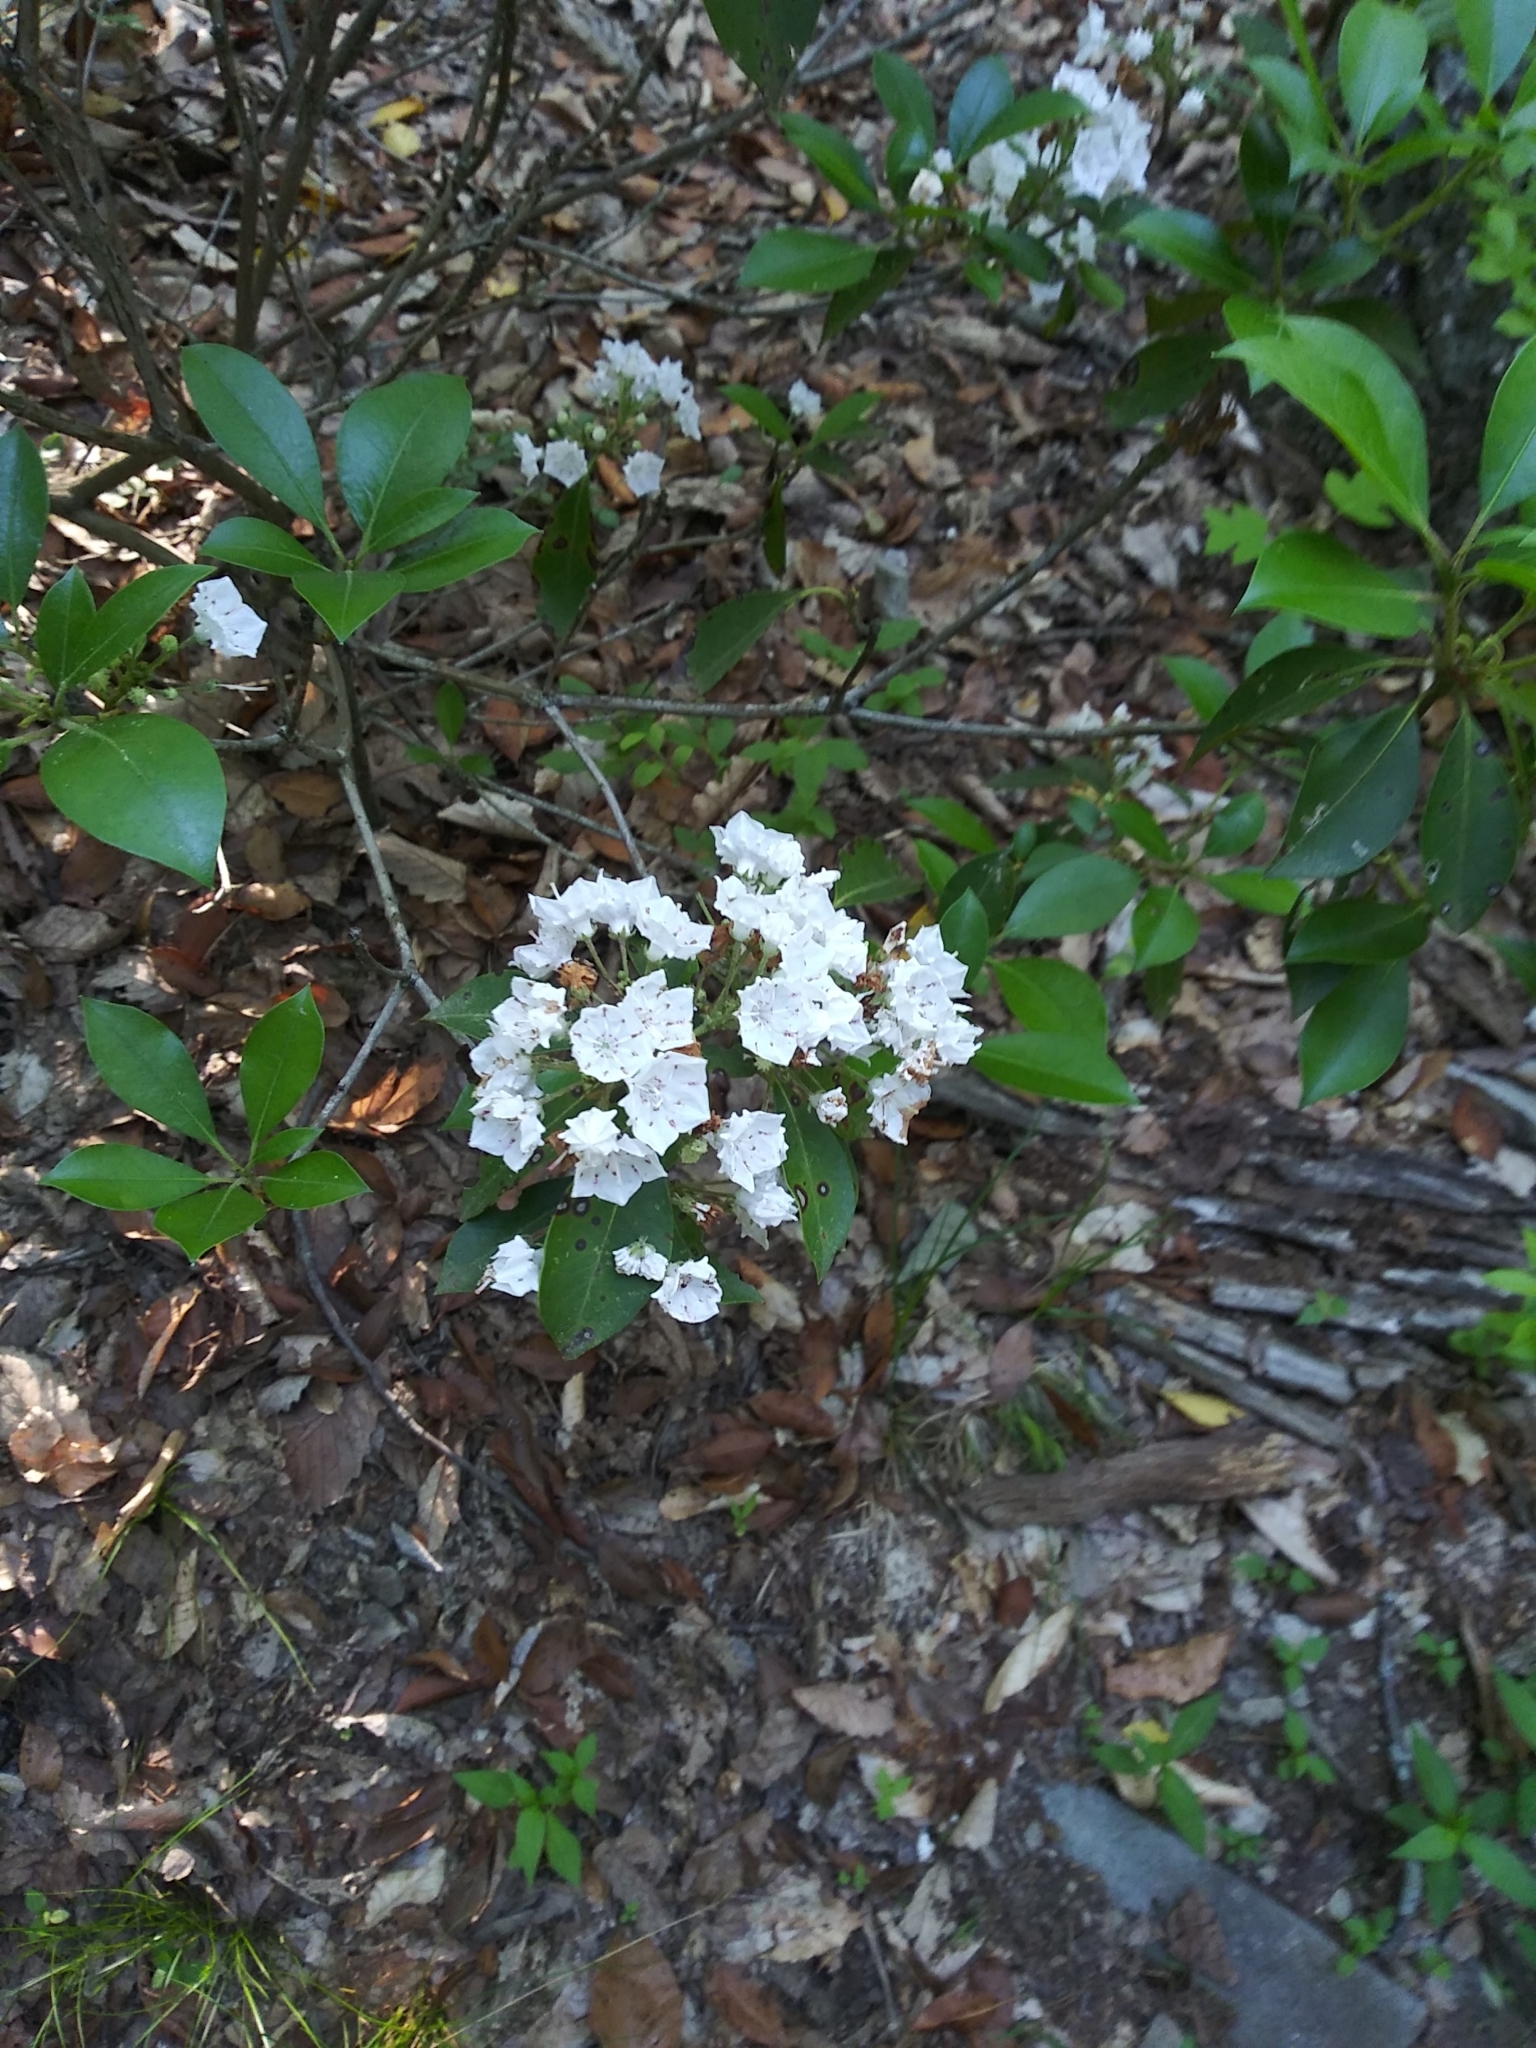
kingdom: Plantae
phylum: Tracheophyta
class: Magnoliopsida
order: Ericales
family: Ericaceae
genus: Kalmia
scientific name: Kalmia latifolia
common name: Mountain-laurel
